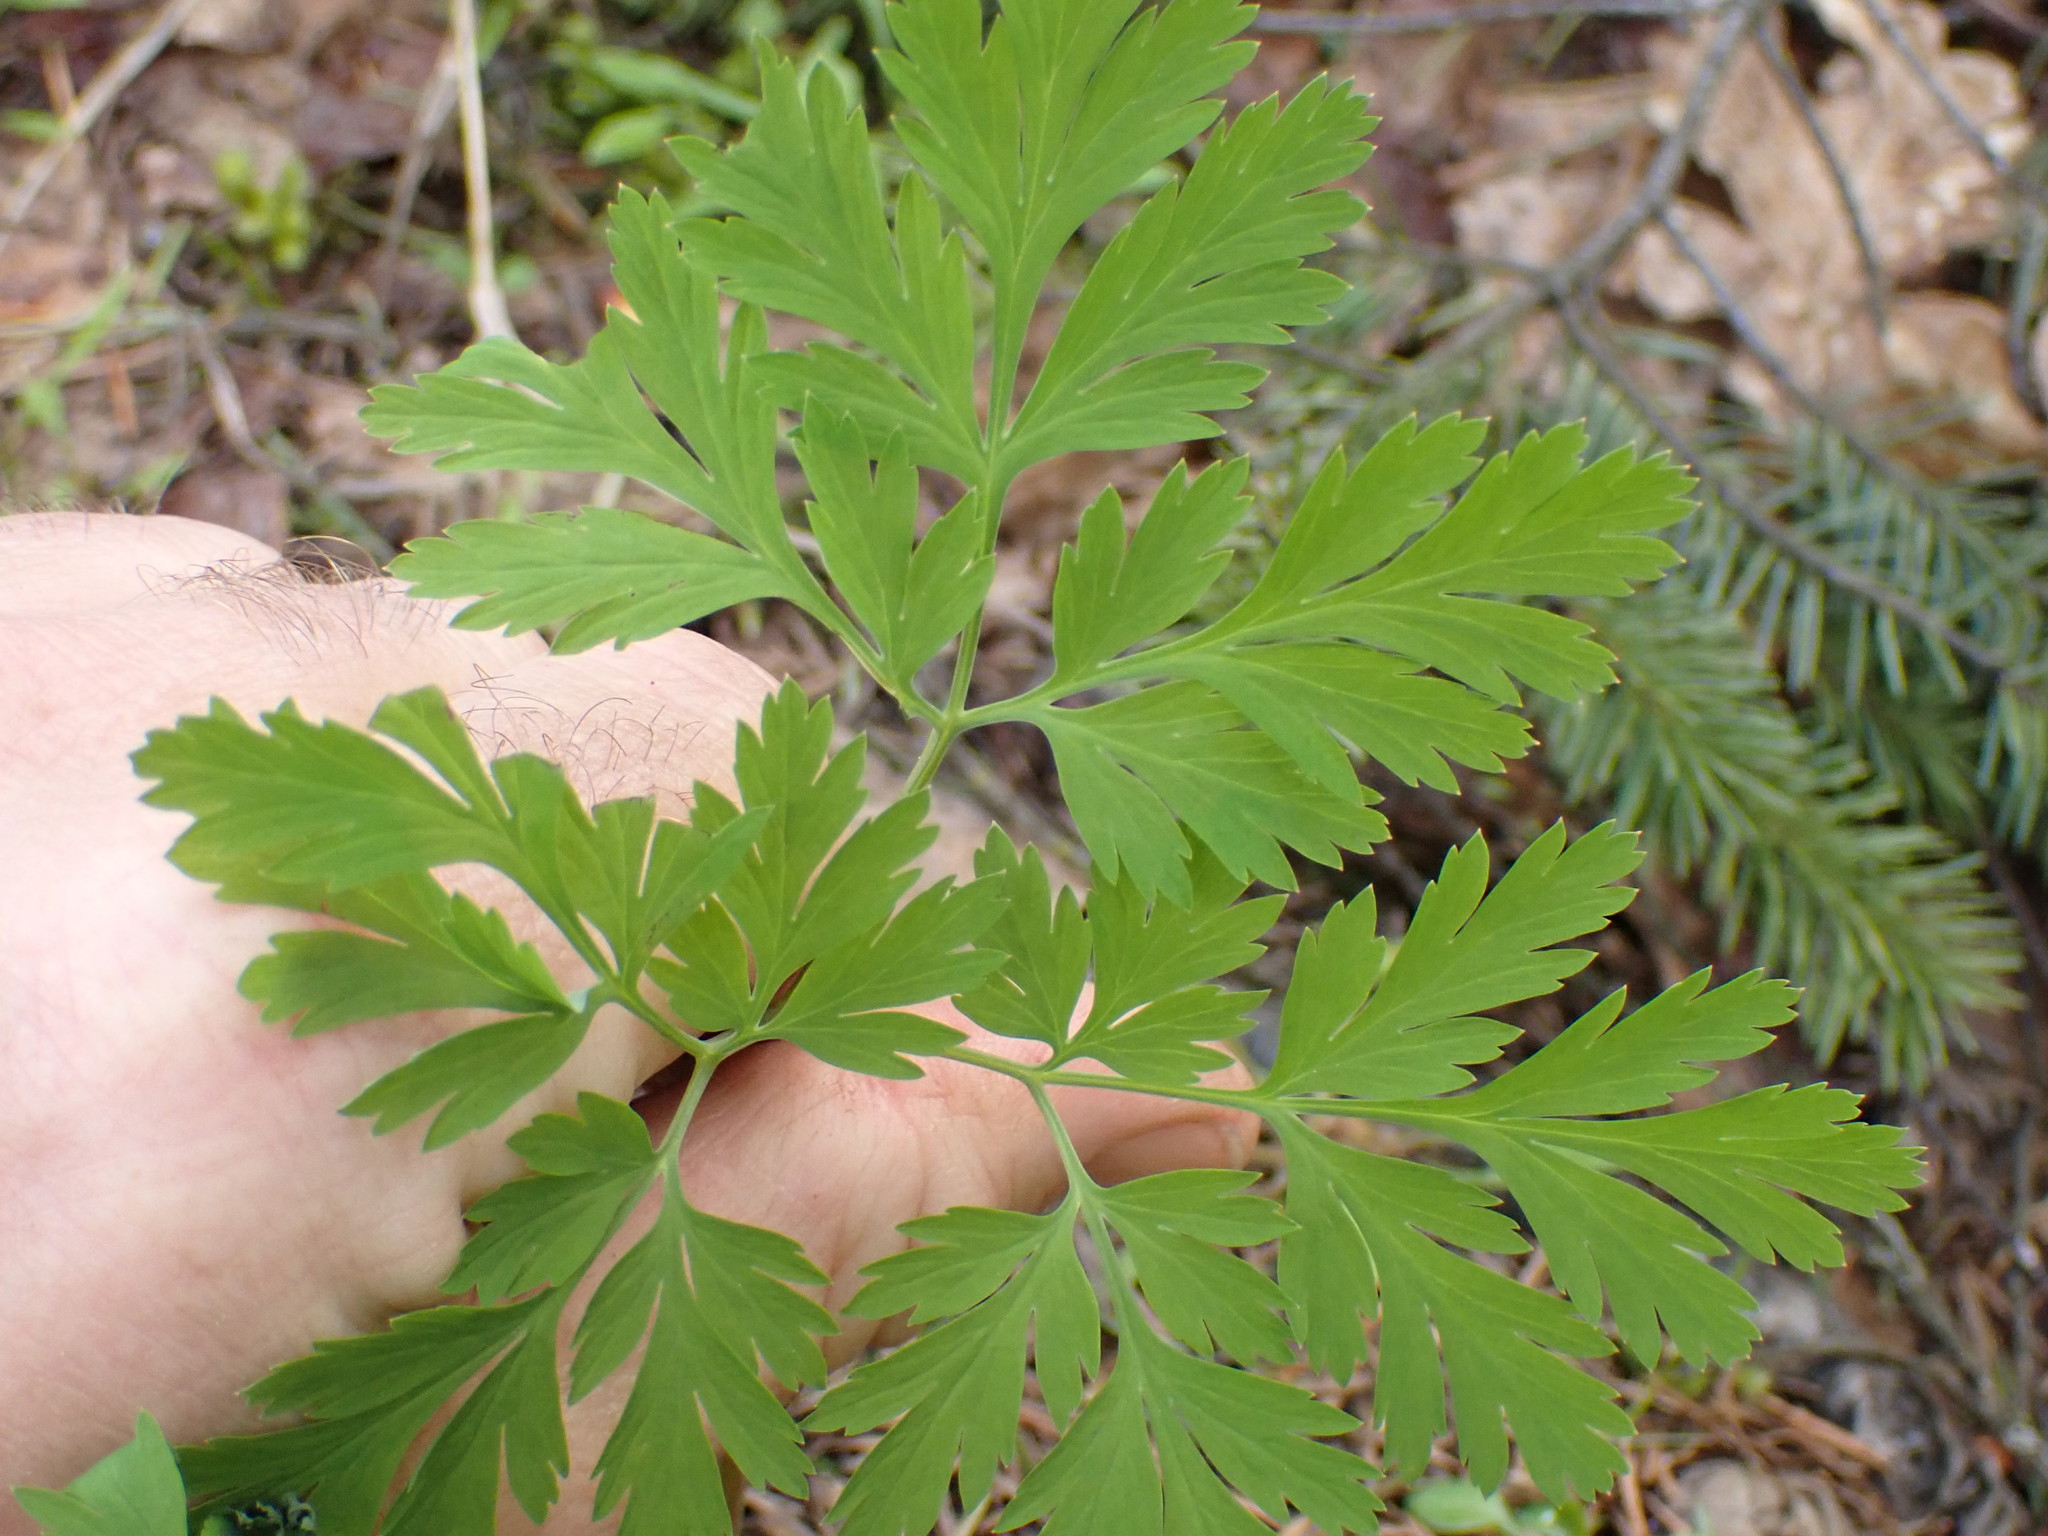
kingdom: Plantae
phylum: Tracheophyta
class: Magnoliopsida
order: Ranunculales
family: Papaveraceae
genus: Dicentra
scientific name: Dicentra formosa
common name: Bleeding-heart
